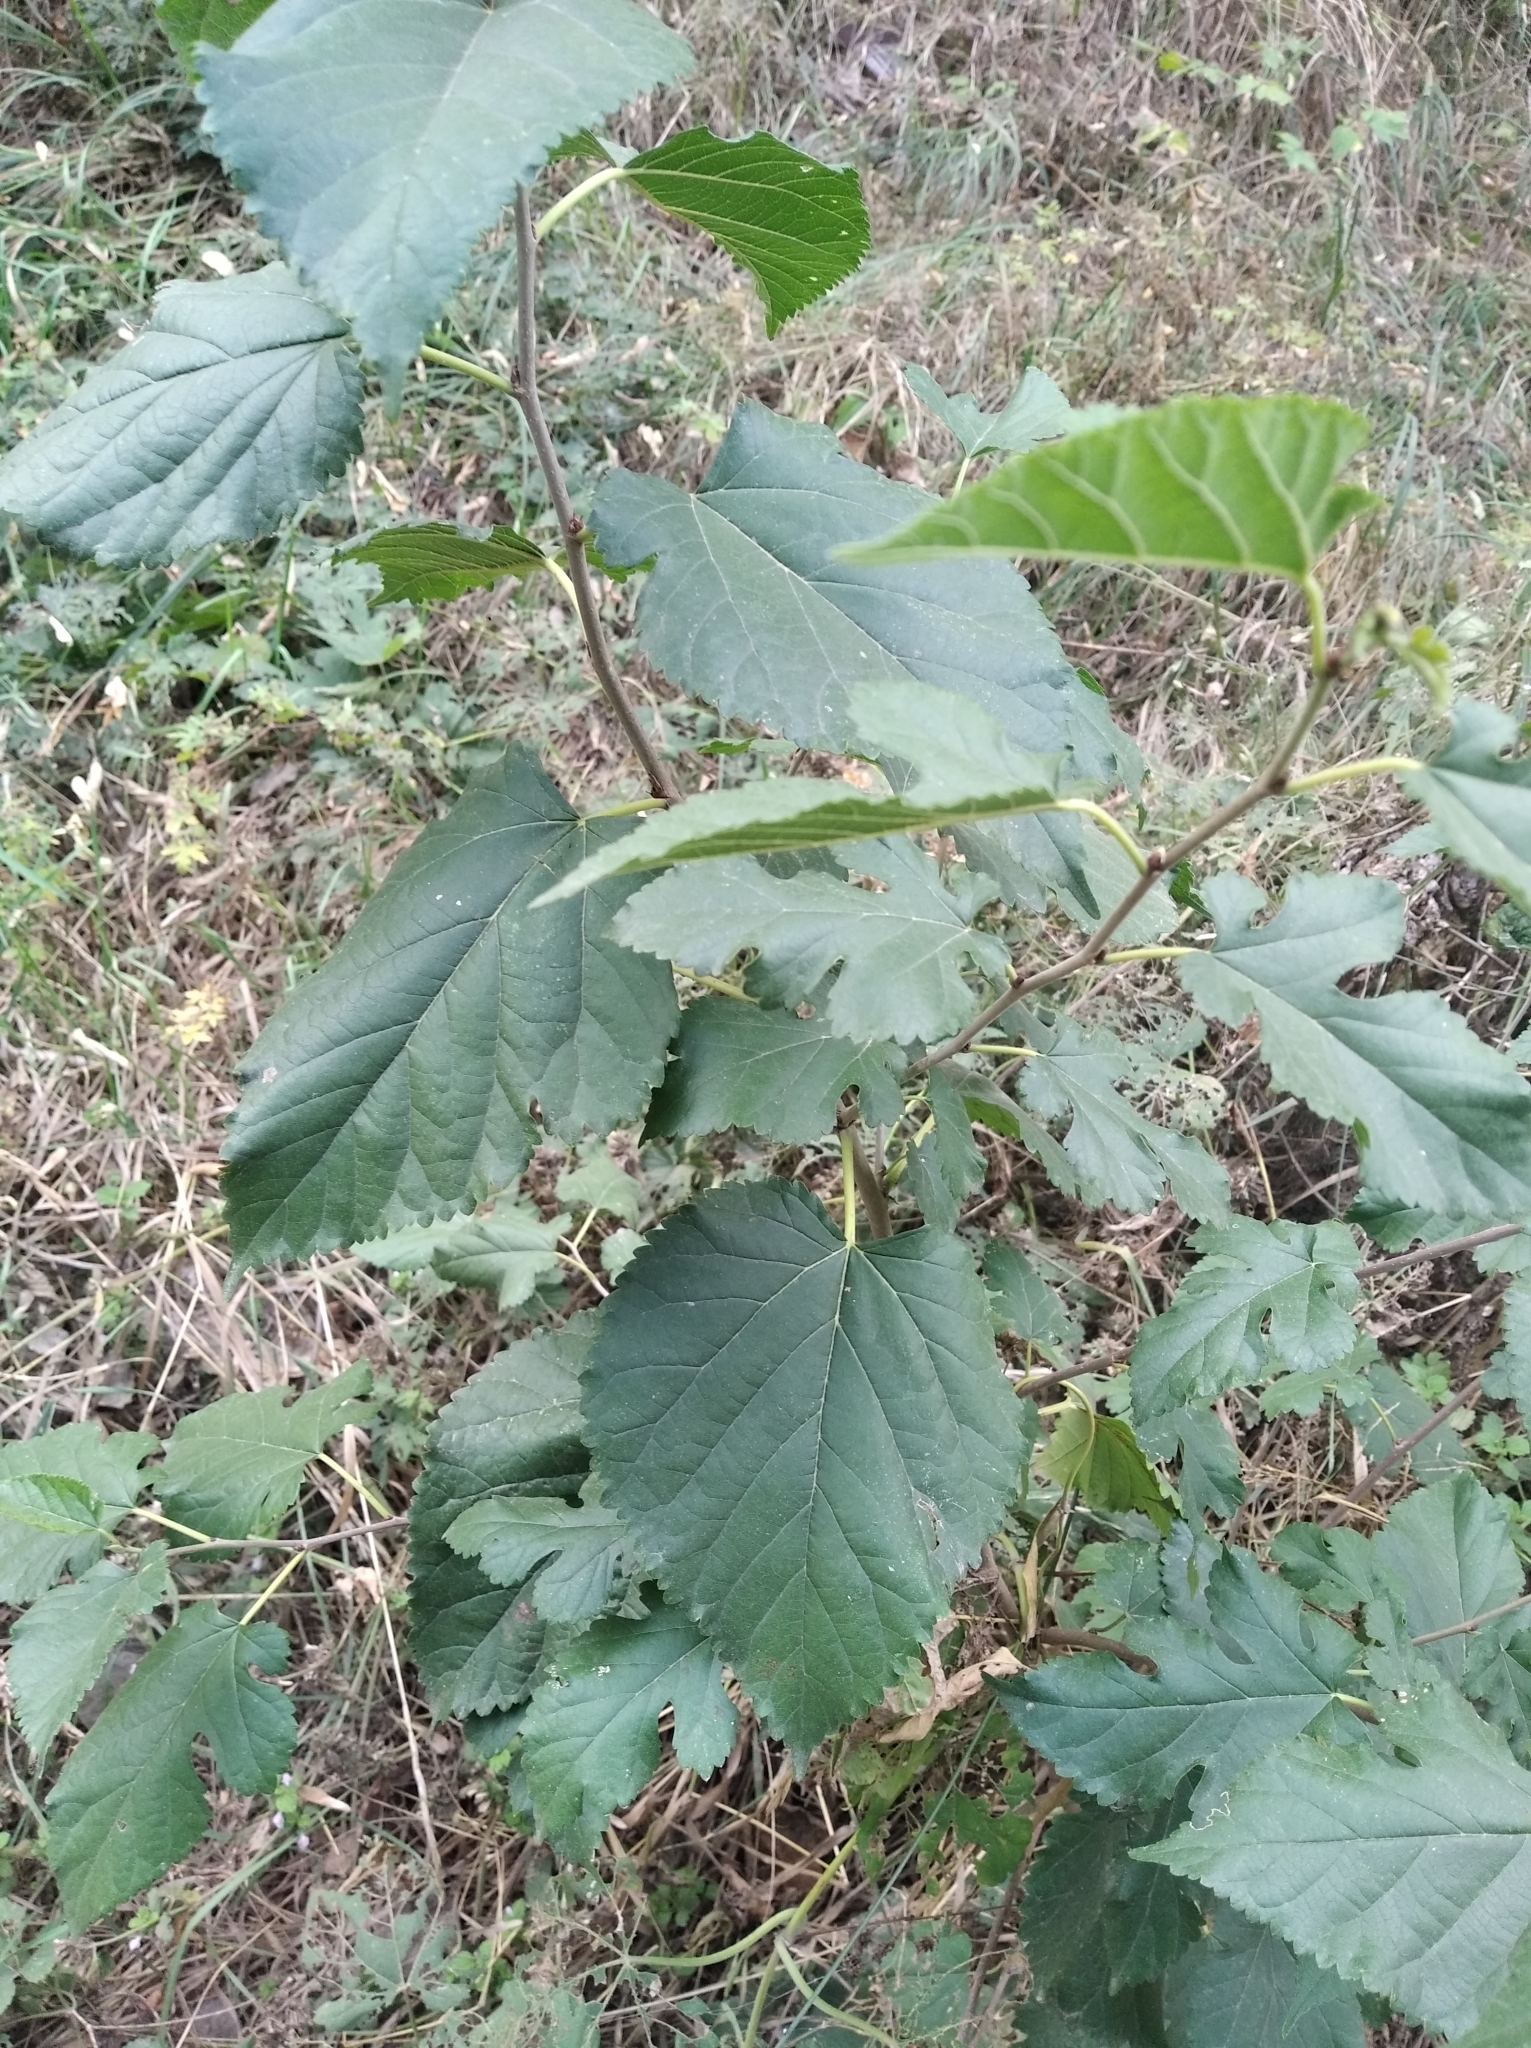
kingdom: Plantae
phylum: Tracheophyta
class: Magnoliopsida
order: Rosales
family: Moraceae
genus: Morus
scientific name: Morus alba
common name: White mulberry
